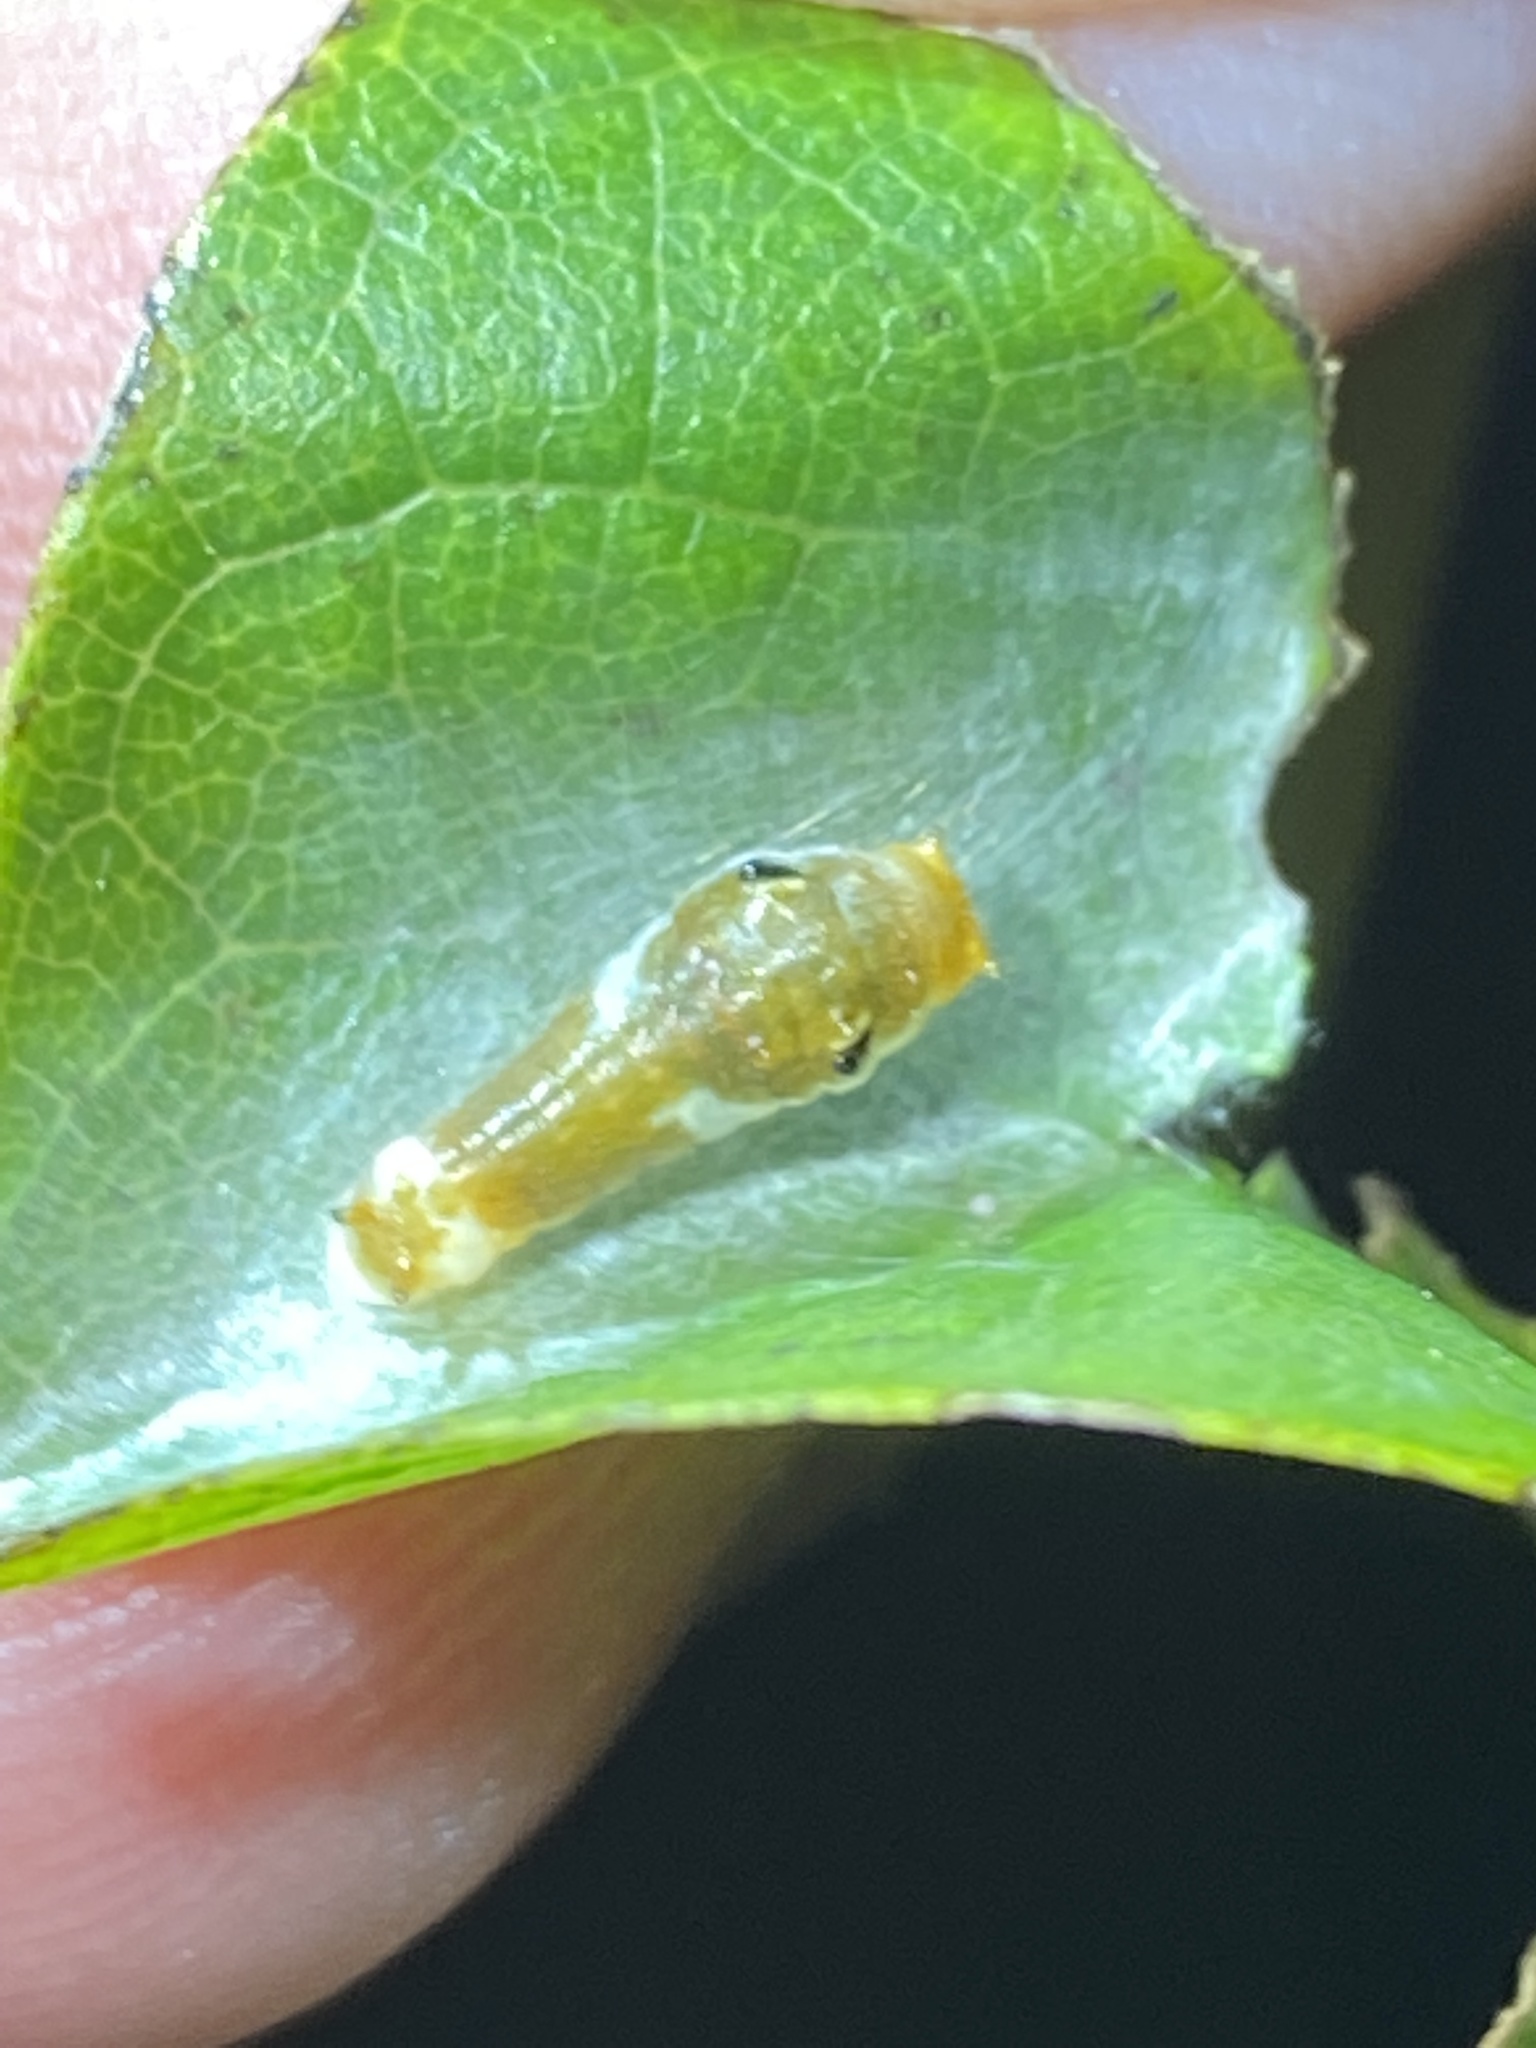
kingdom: Animalia
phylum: Arthropoda
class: Insecta
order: Lepidoptera
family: Papilionidae
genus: Papilio
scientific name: Papilio troilus
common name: Spicebush swallowtail
